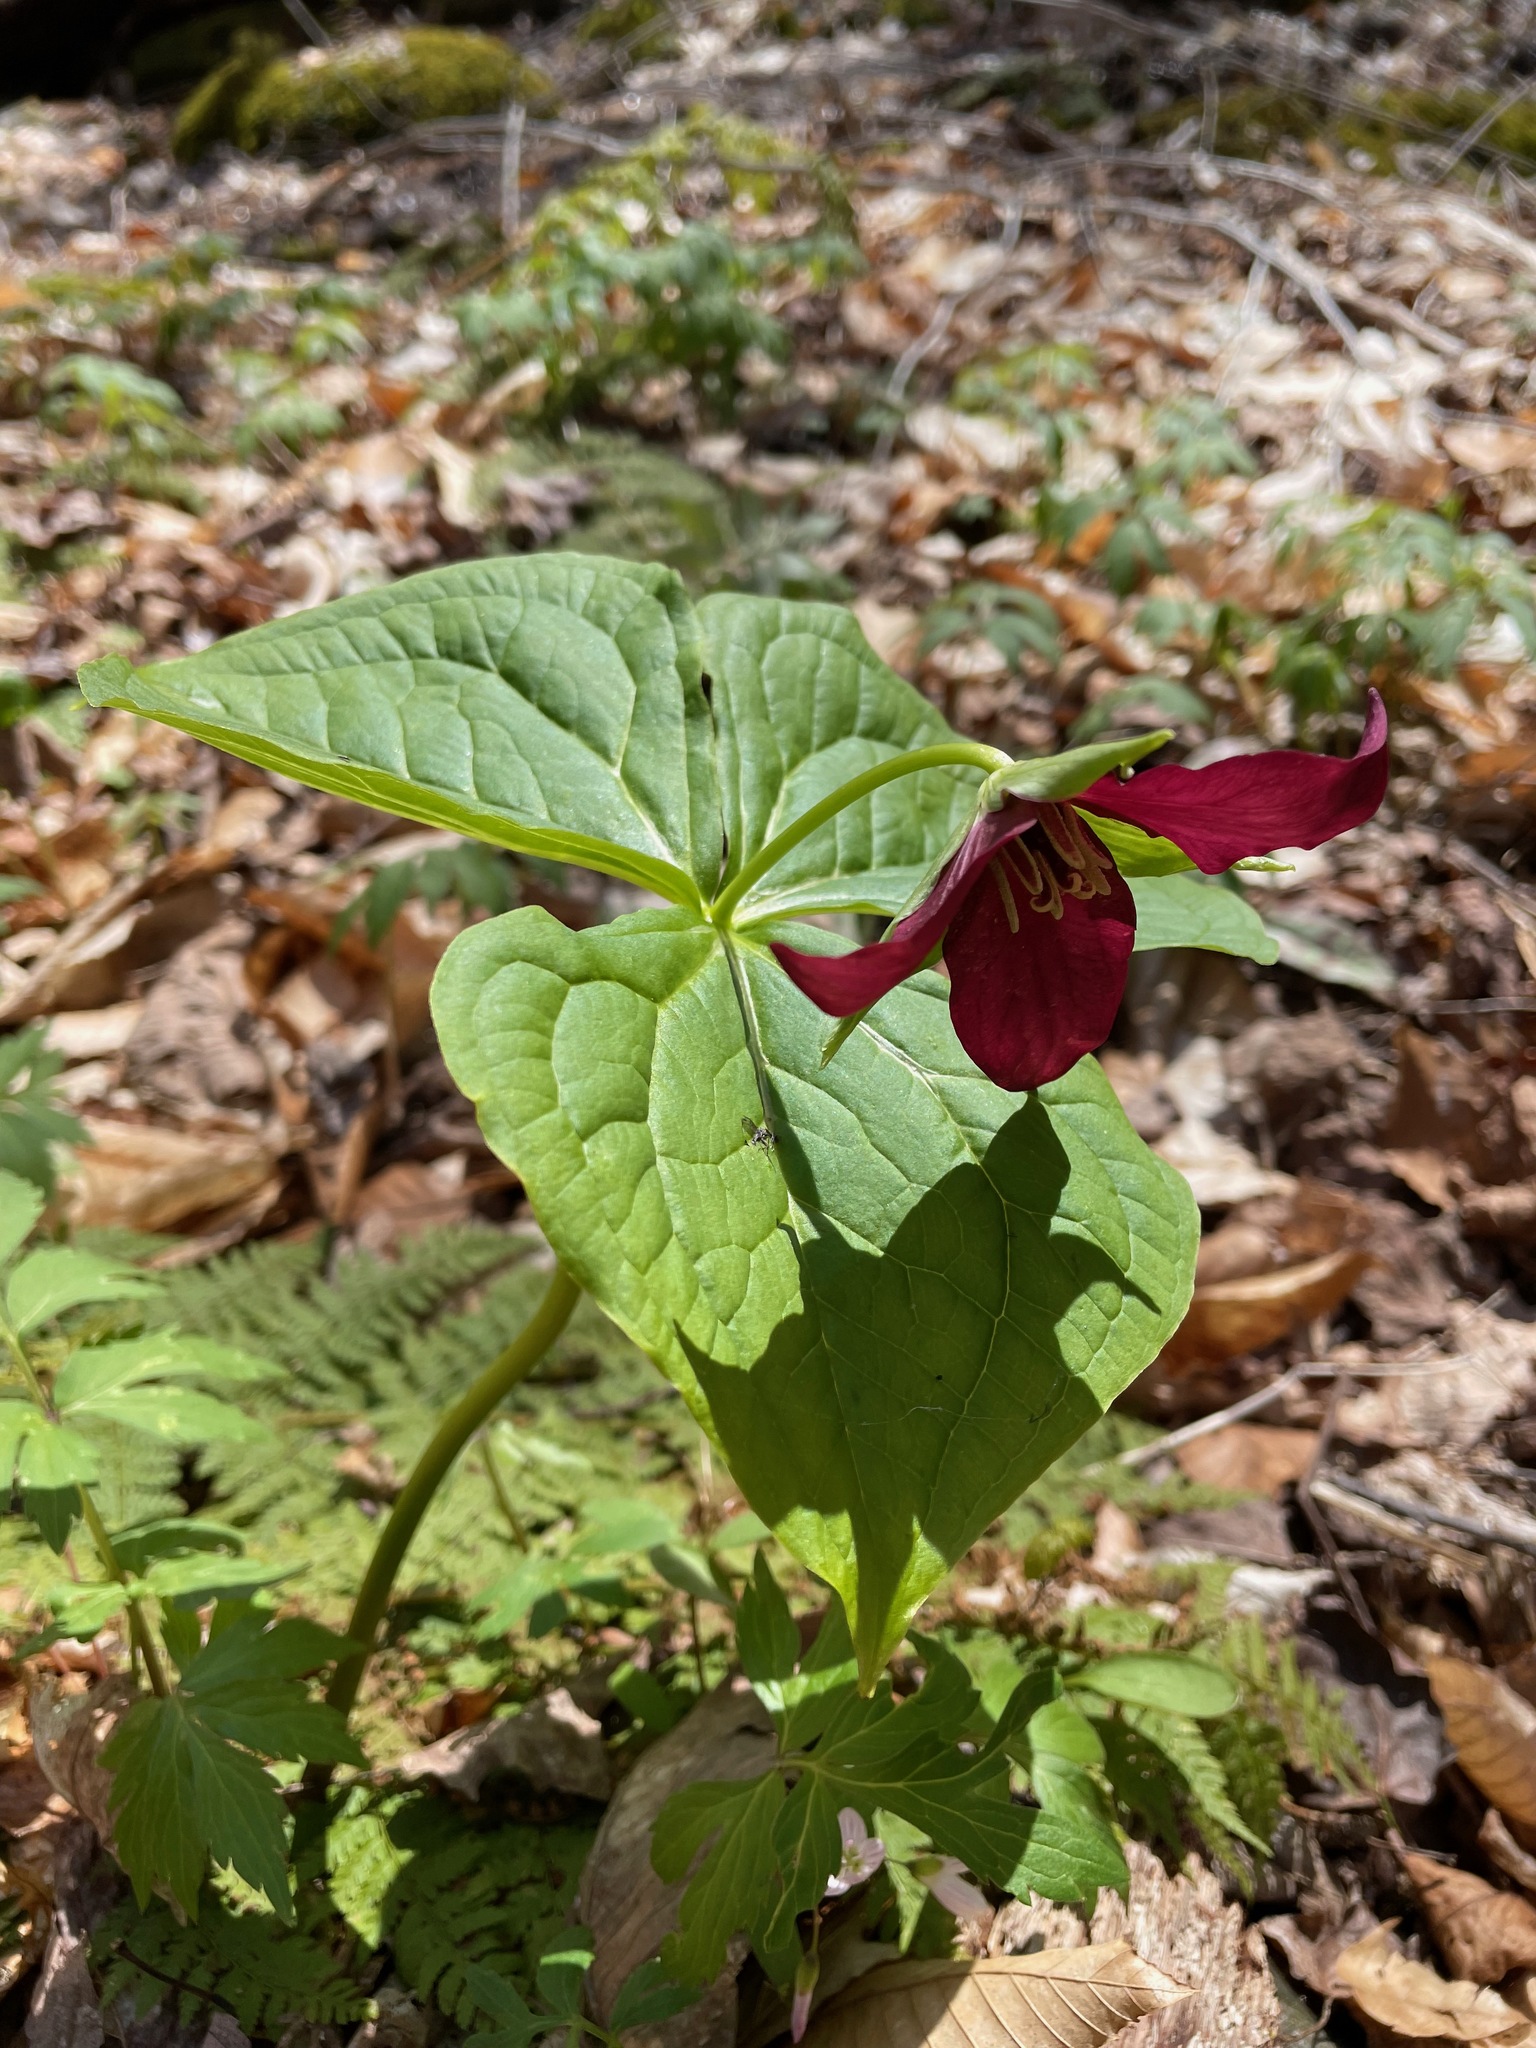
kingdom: Plantae
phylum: Tracheophyta
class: Liliopsida
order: Liliales
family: Melanthiaceae
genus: Trillium
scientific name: Trillium erectum
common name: Purple trillium
